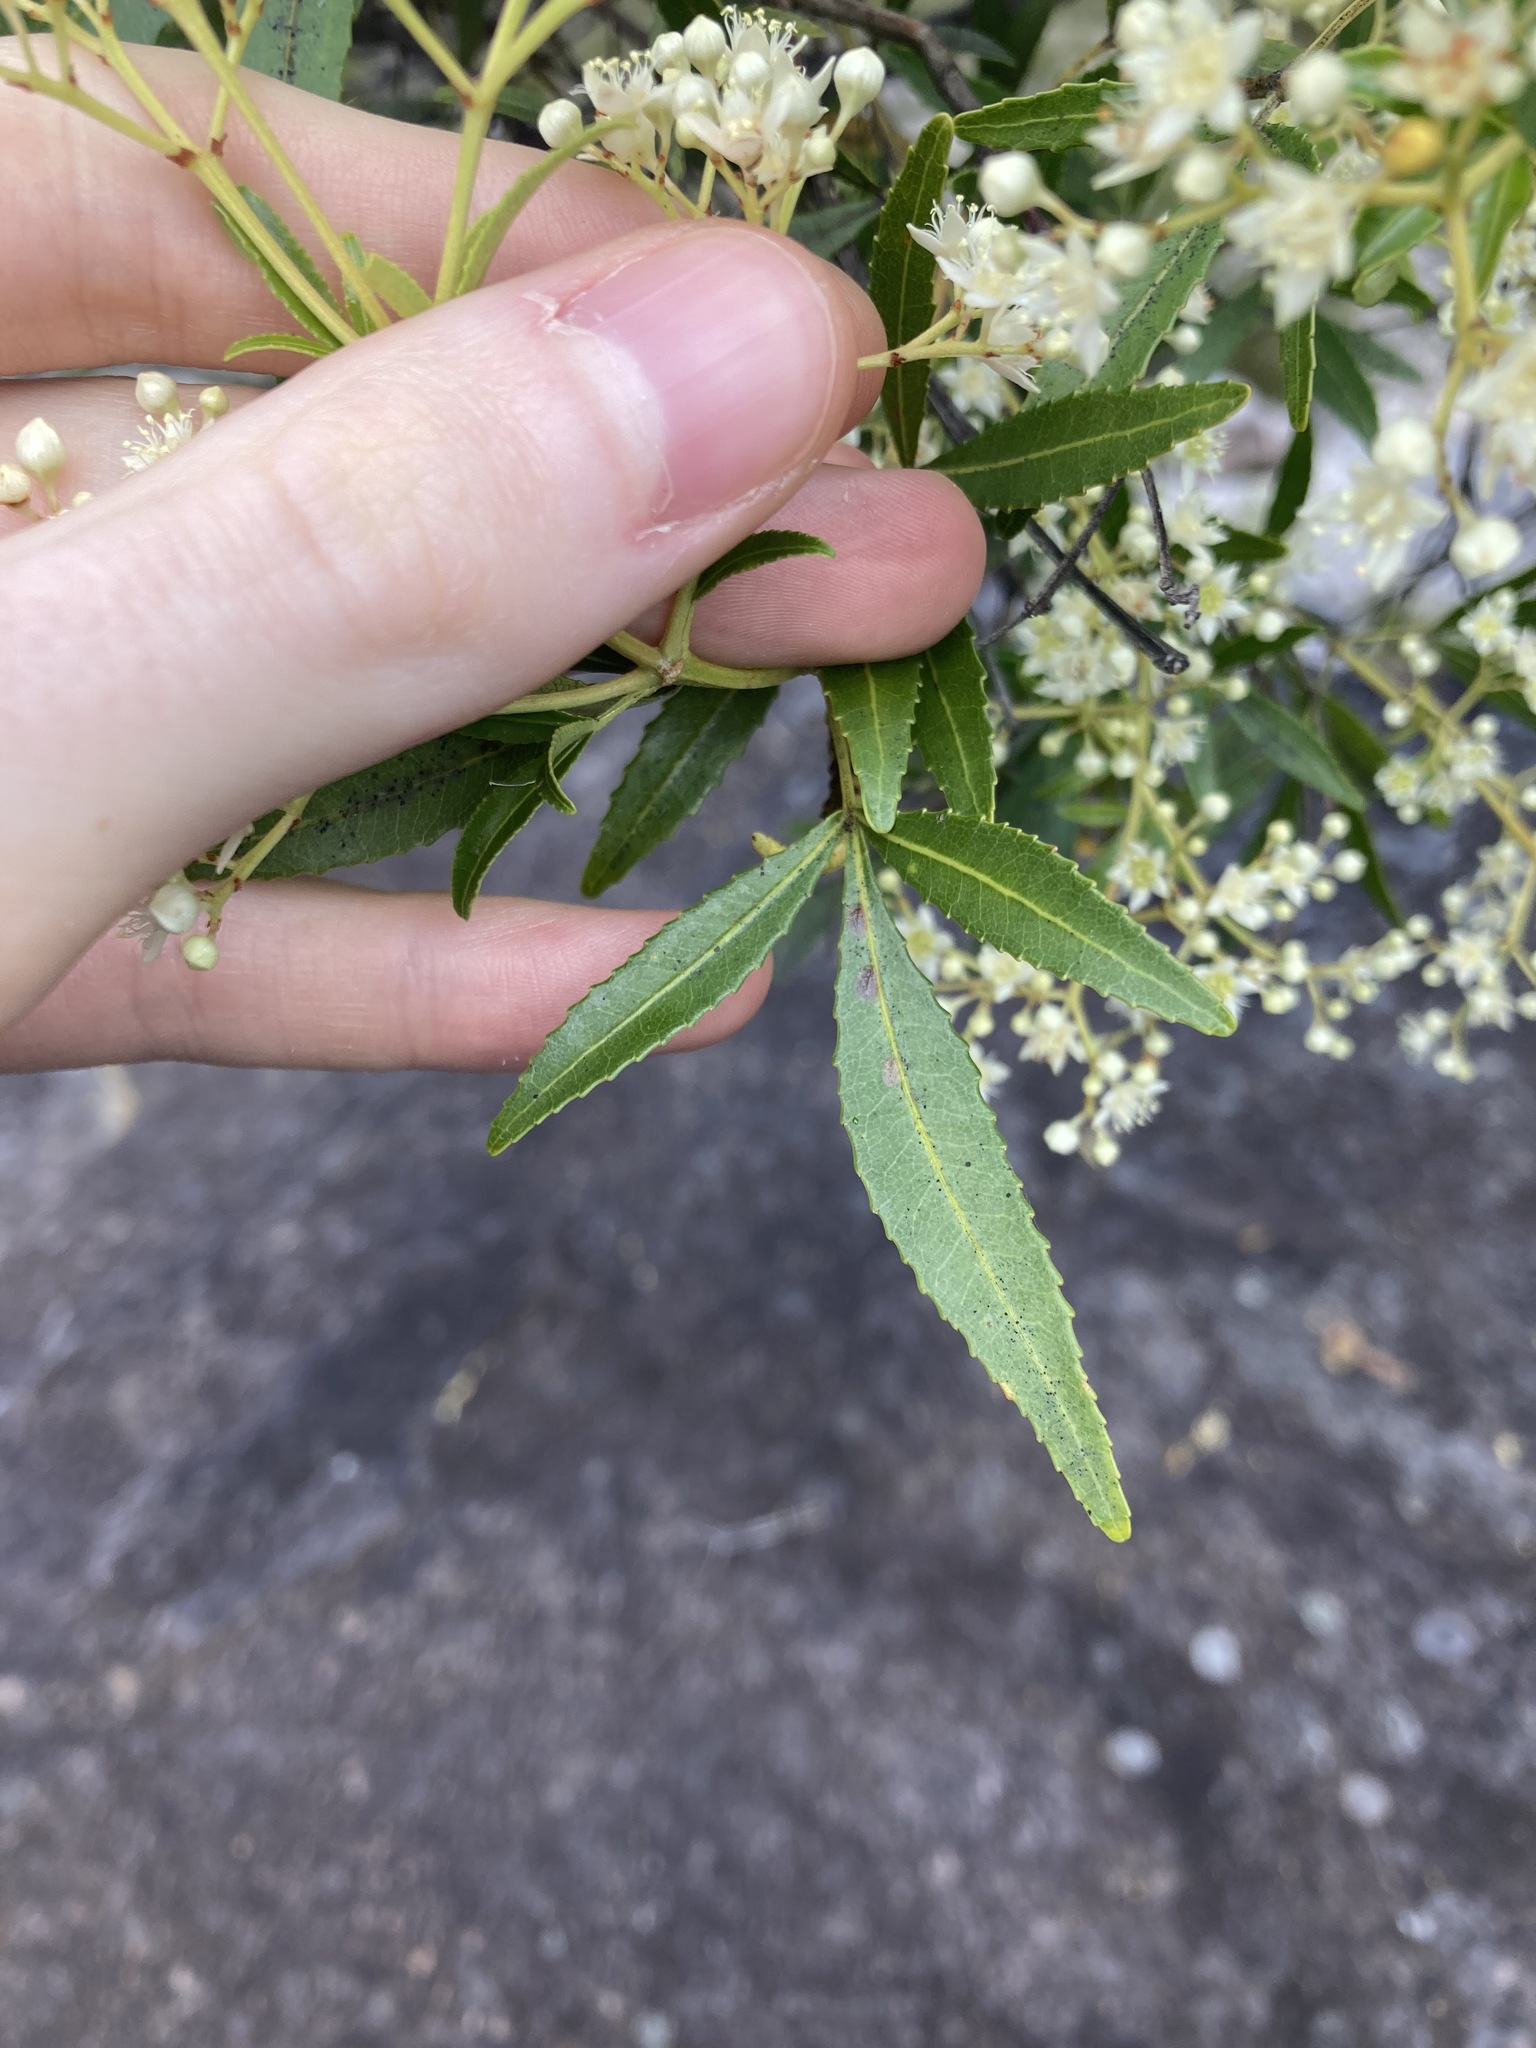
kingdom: Plantae
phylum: Tracheophyta
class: Magnoliopsida
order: Oxalidales
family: Cunoniaceae
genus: Ceratopetalum
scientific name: Ceratopetalum gummiferum
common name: Christmasbush
